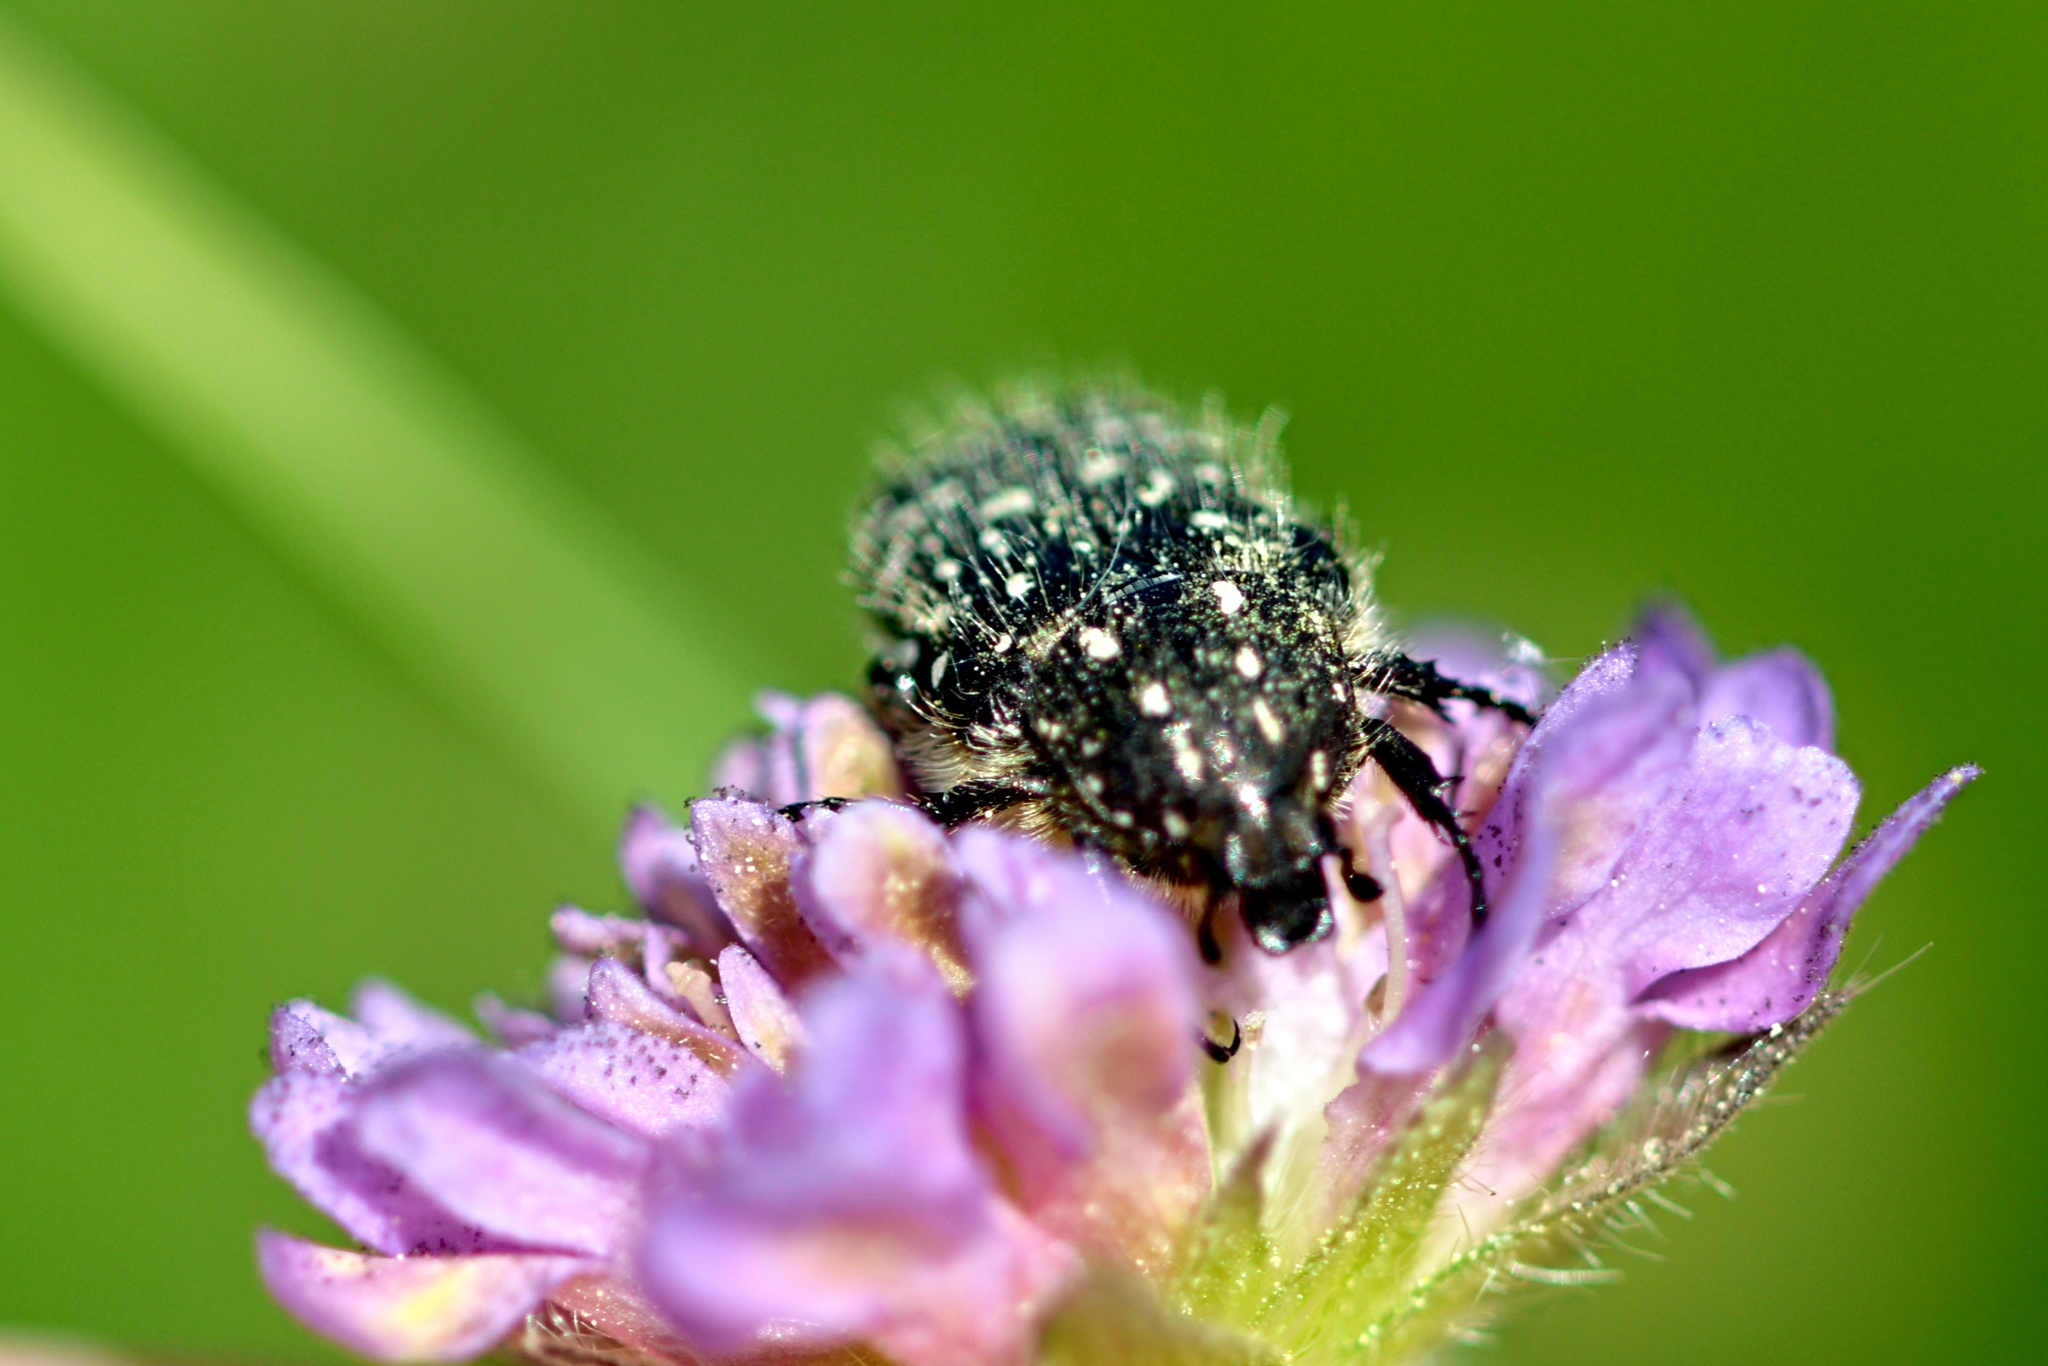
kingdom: Animalia
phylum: Arthropoda
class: Insecta
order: Coleoptera
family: Scarabaeidae
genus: Oxythyrea
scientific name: Oxythyrea funesta
